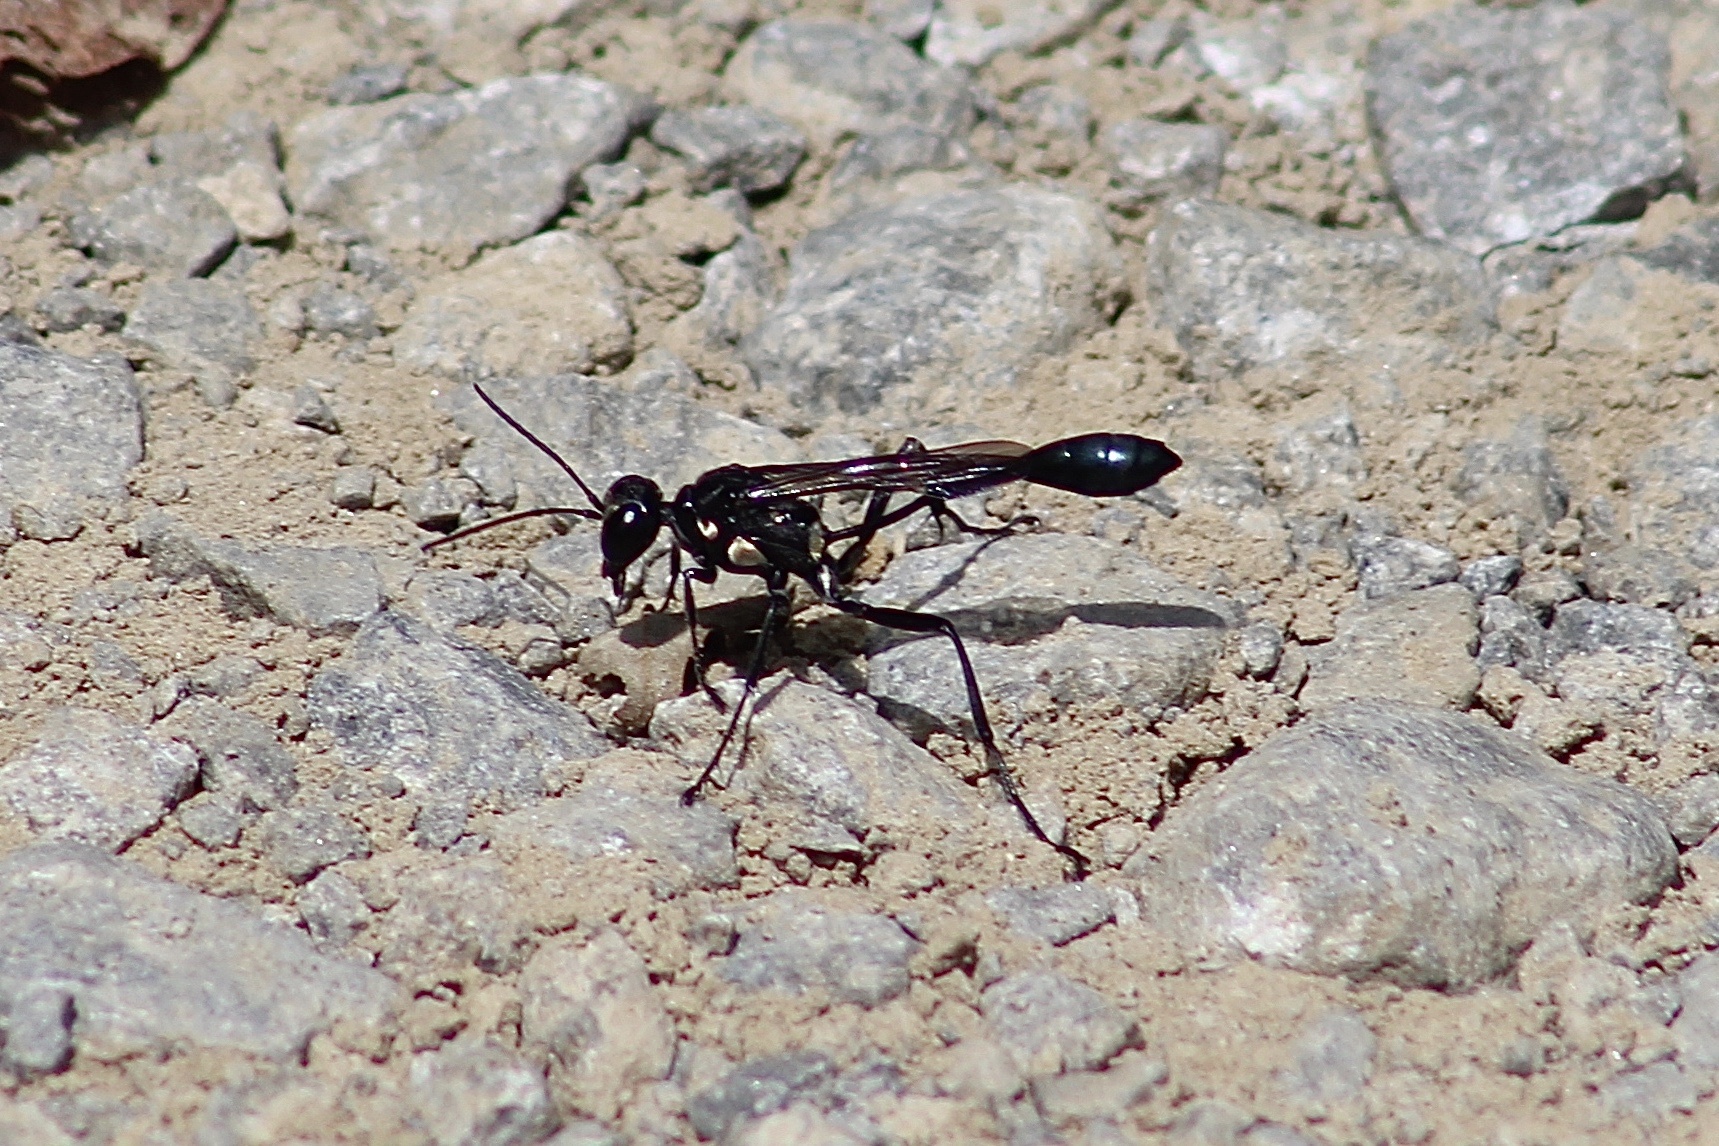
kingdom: Animalia
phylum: Arthropoda
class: Insecta
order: Hymenoptera
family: Sphecidae
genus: Eremnophila
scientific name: Eremnophila aureonotata
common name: Gold-marked thread-waisted wasp
